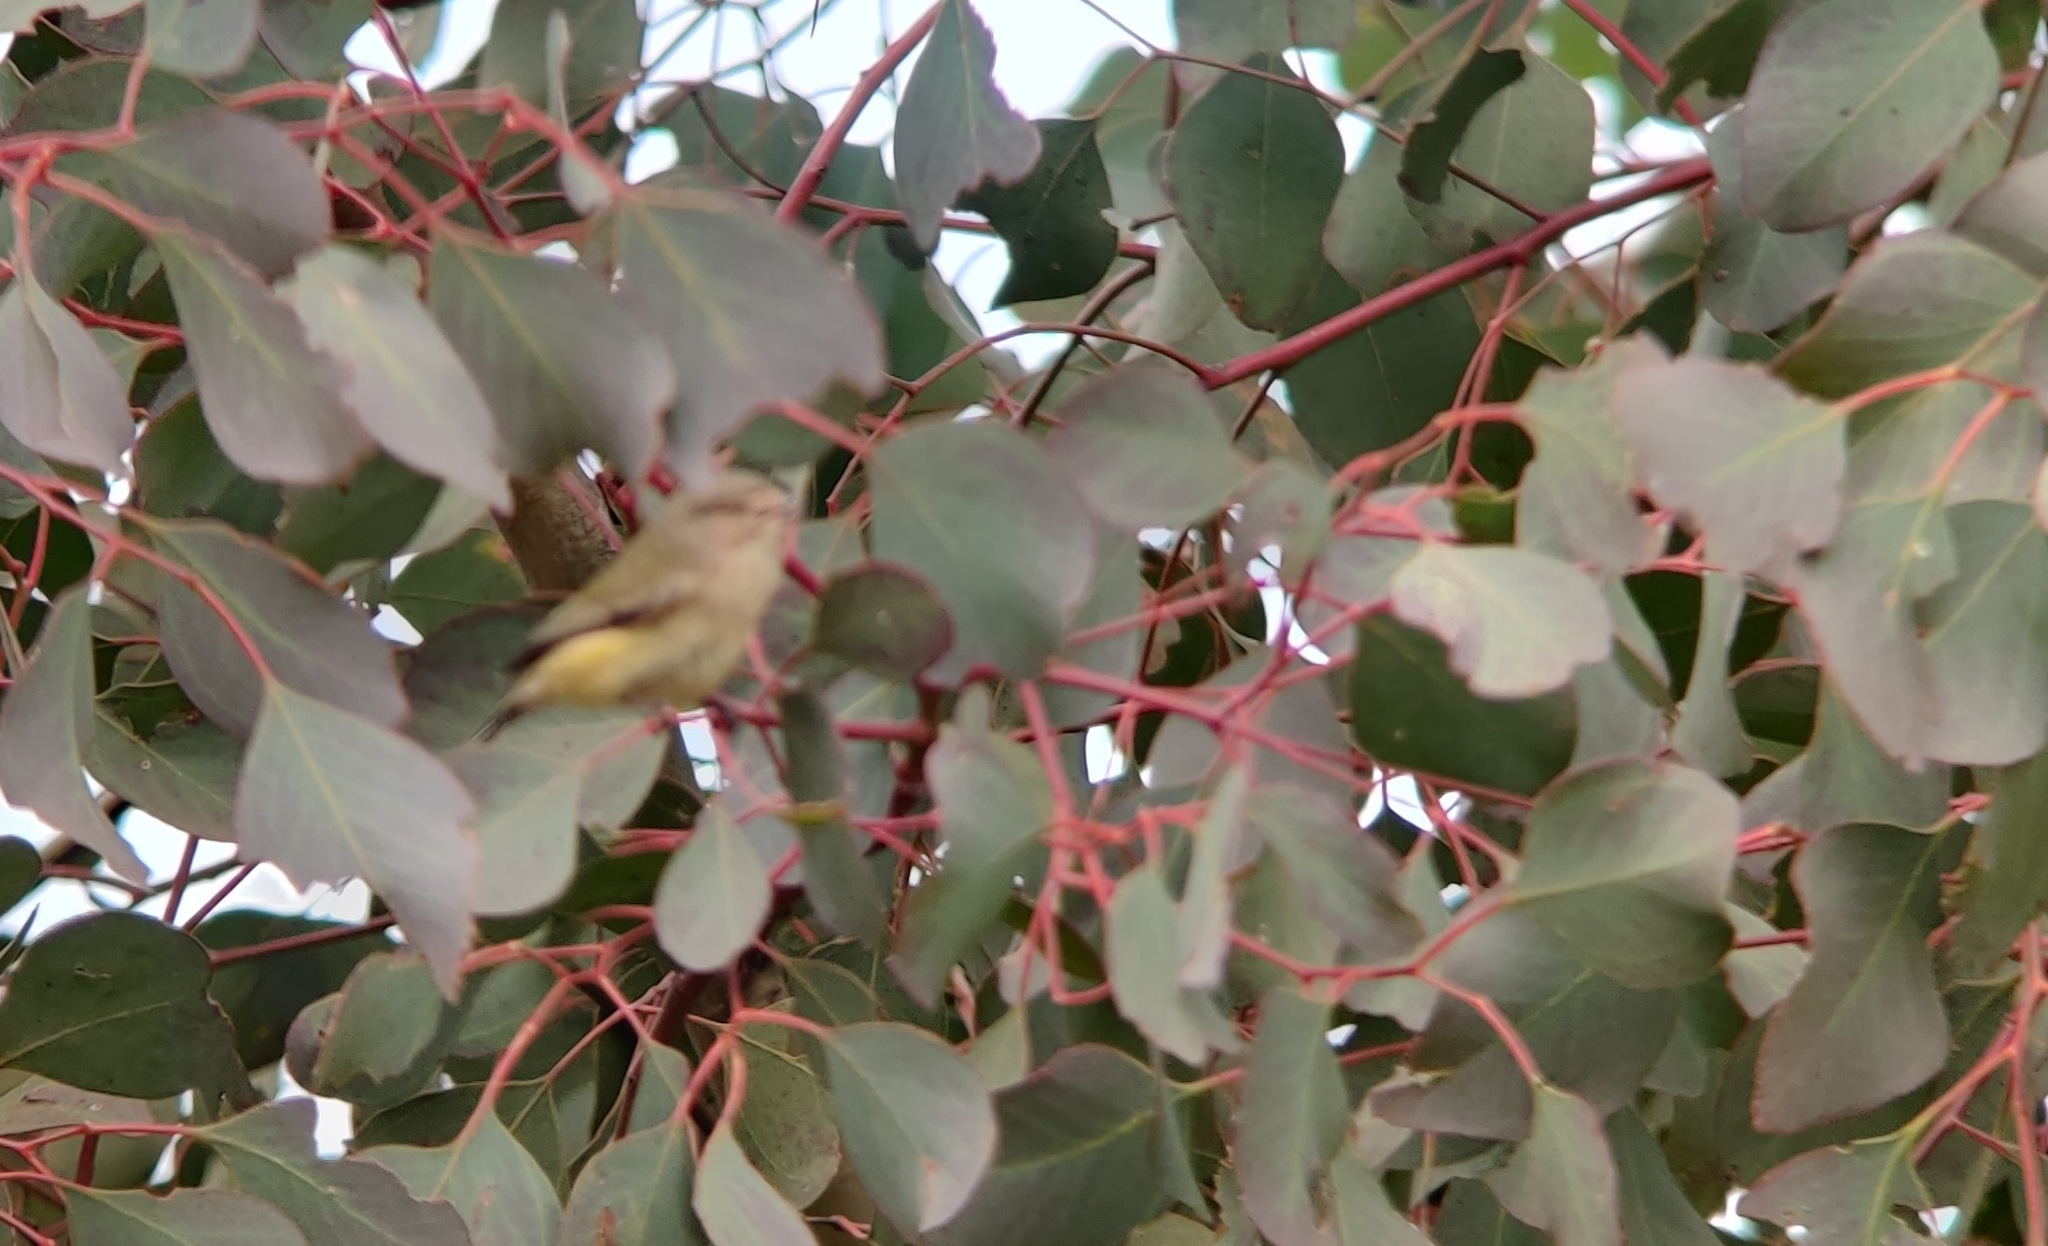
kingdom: Animalia
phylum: Chordata
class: Aves
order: Passeriformes
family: Acanthizidae
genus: Smicrornis
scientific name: Smicrornis brevirostris
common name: Weebill
